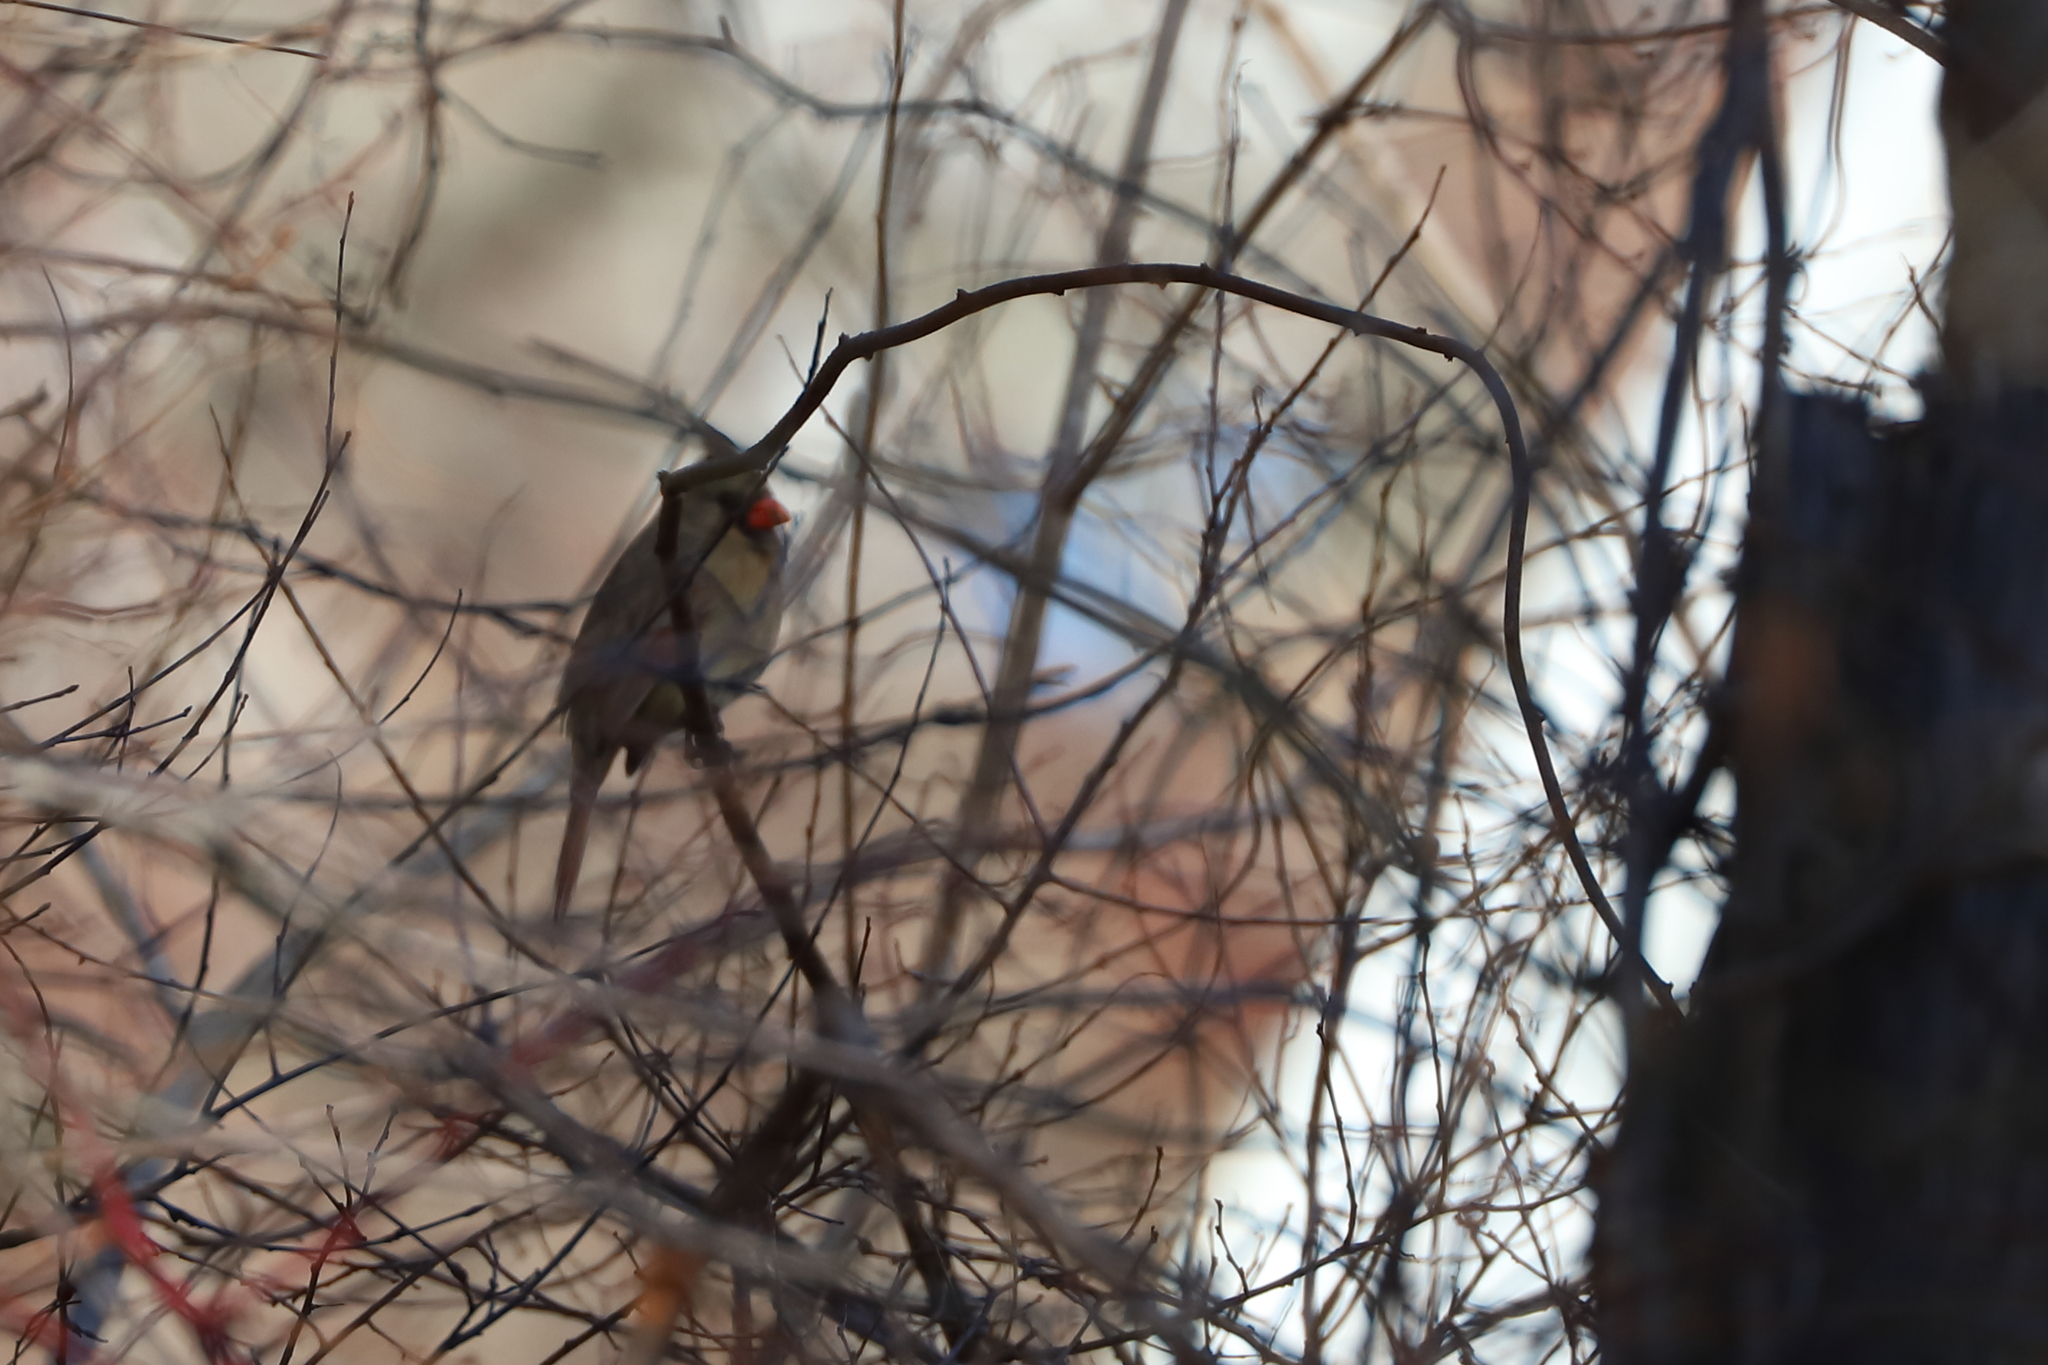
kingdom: Animalia
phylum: Chordata
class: Aves
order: Passeriformes
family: Cardinalidae
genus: Cardinalis
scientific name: Cardinalis cardinalis
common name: Northern cardinal
